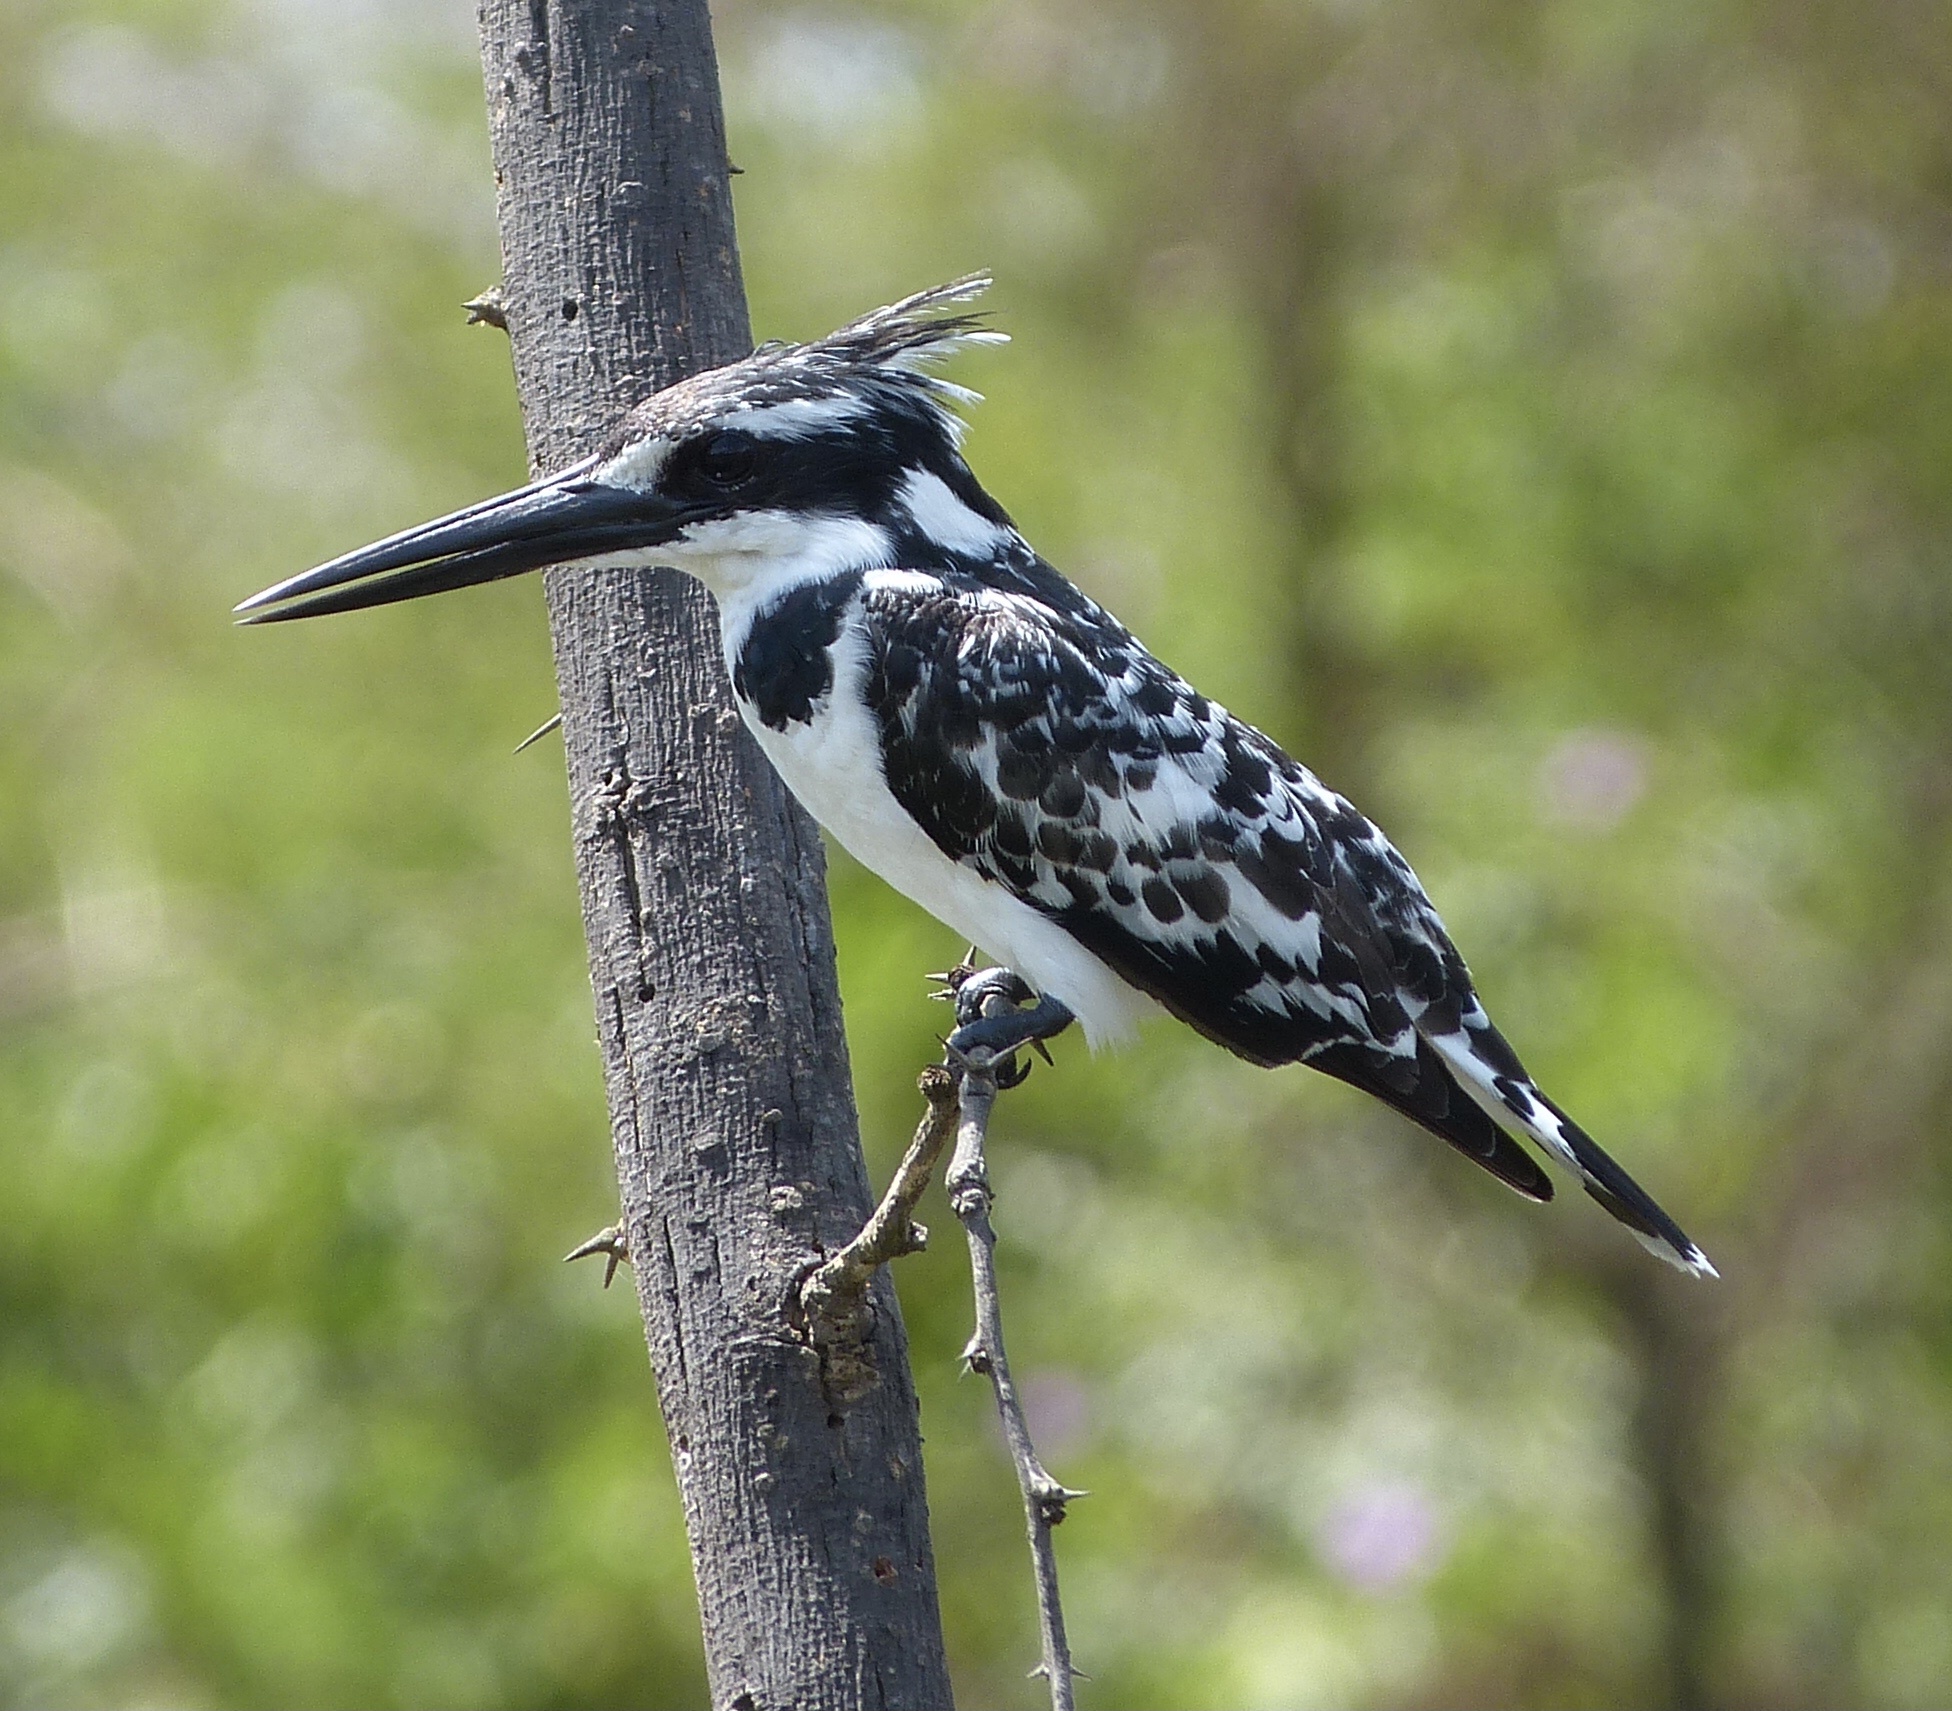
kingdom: Animalia
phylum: Chordata
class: Aves
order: Coraciiformes
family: Alcedinidae
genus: Ceryle
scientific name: Ceryle rudis
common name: Pied kingfisher
